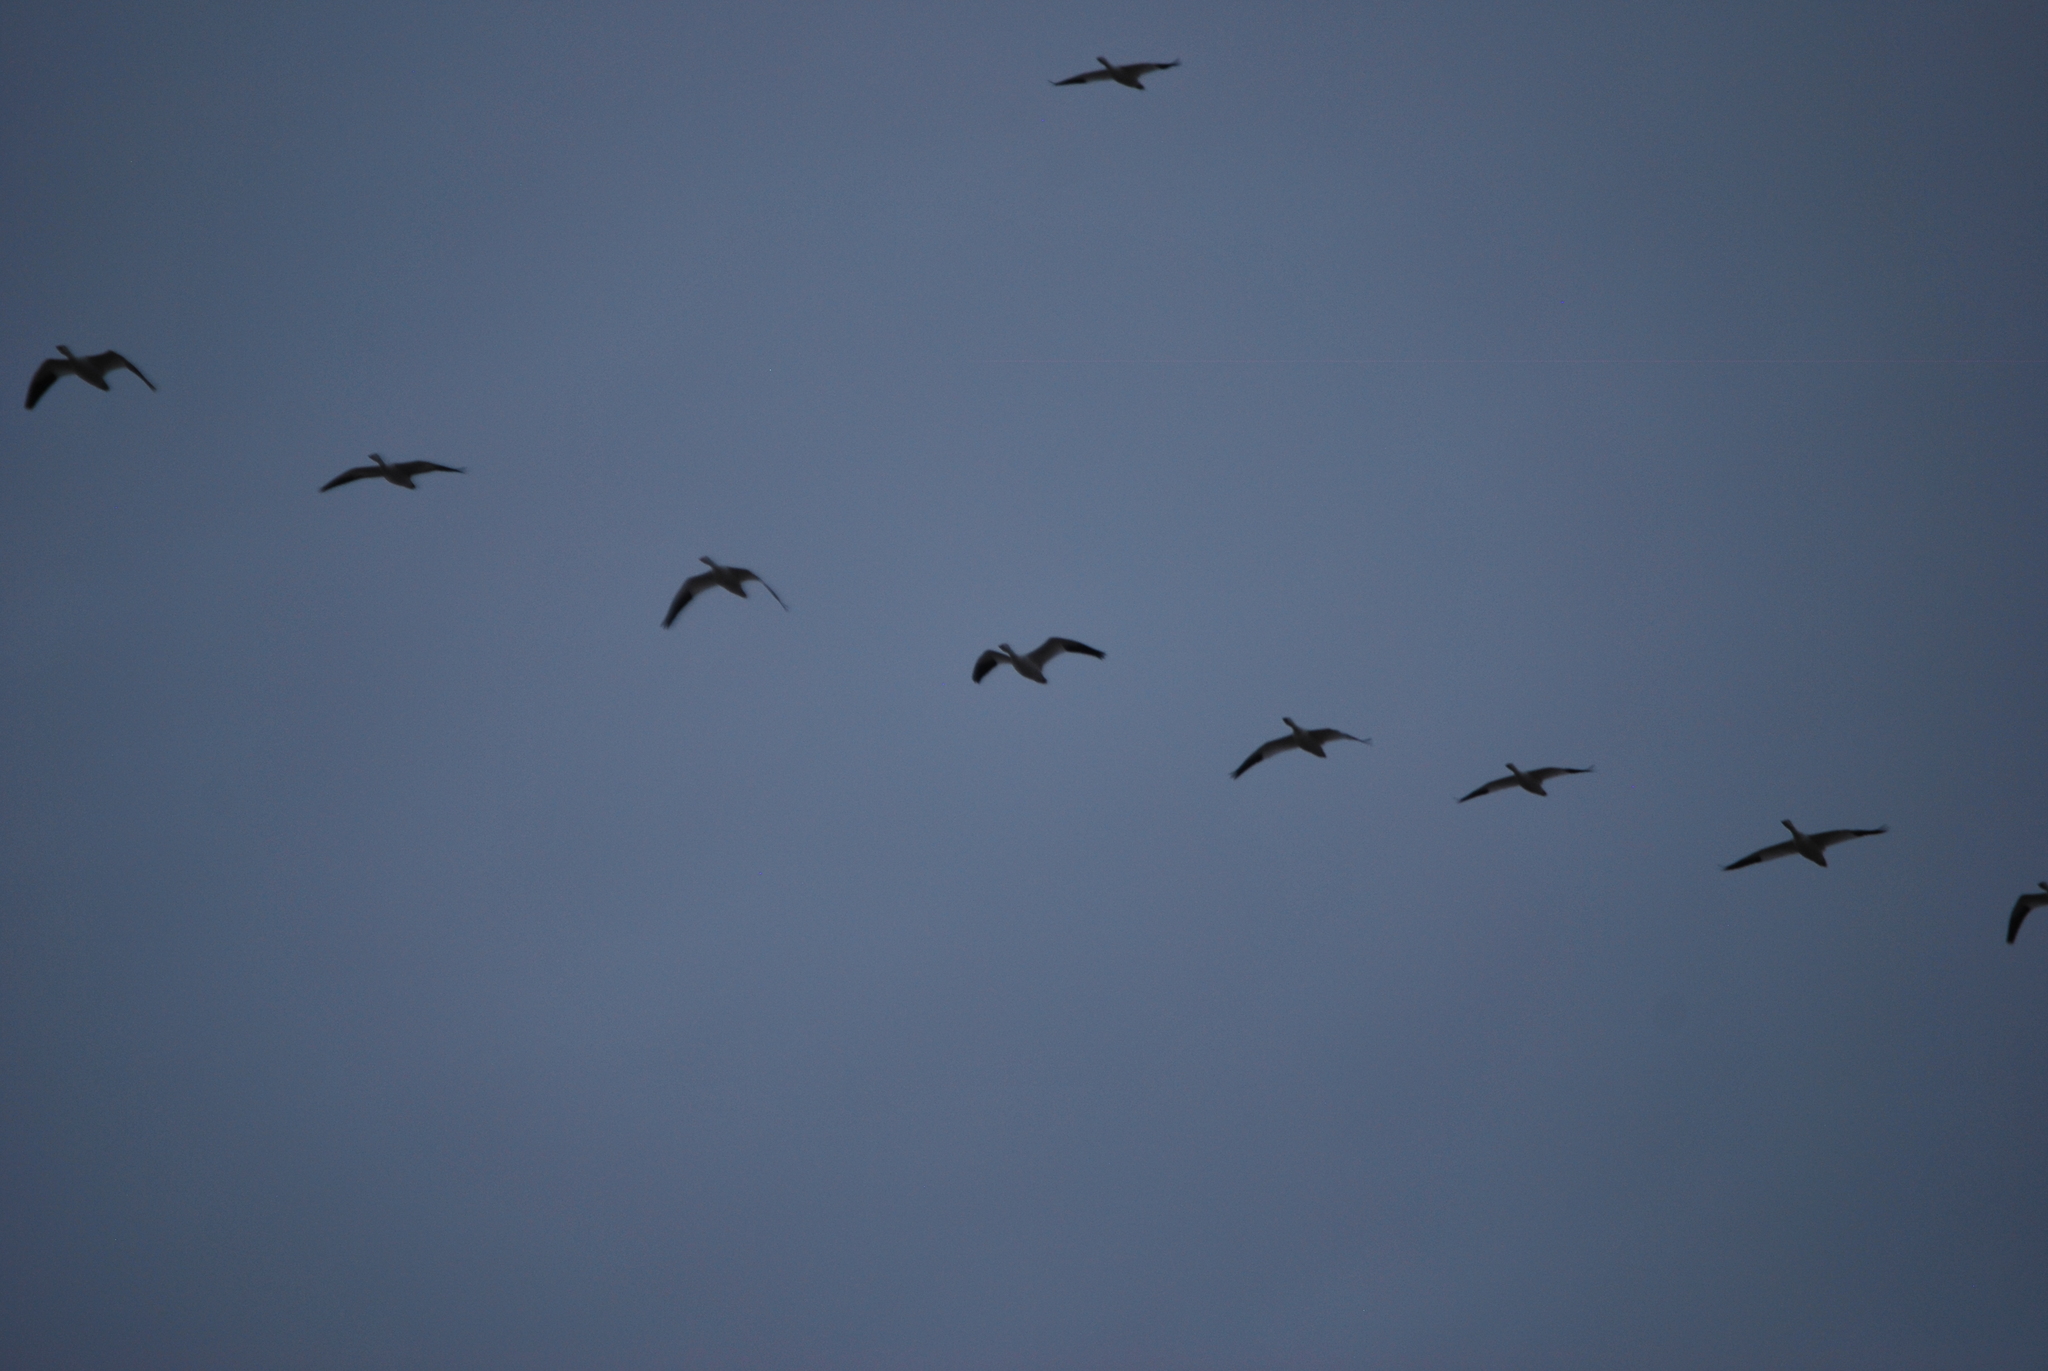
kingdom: Animalia
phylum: Chordata
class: Aves
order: Anseriformes
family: Anatidae
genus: Anser
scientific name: Anser caerulescens
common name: Snow goose
